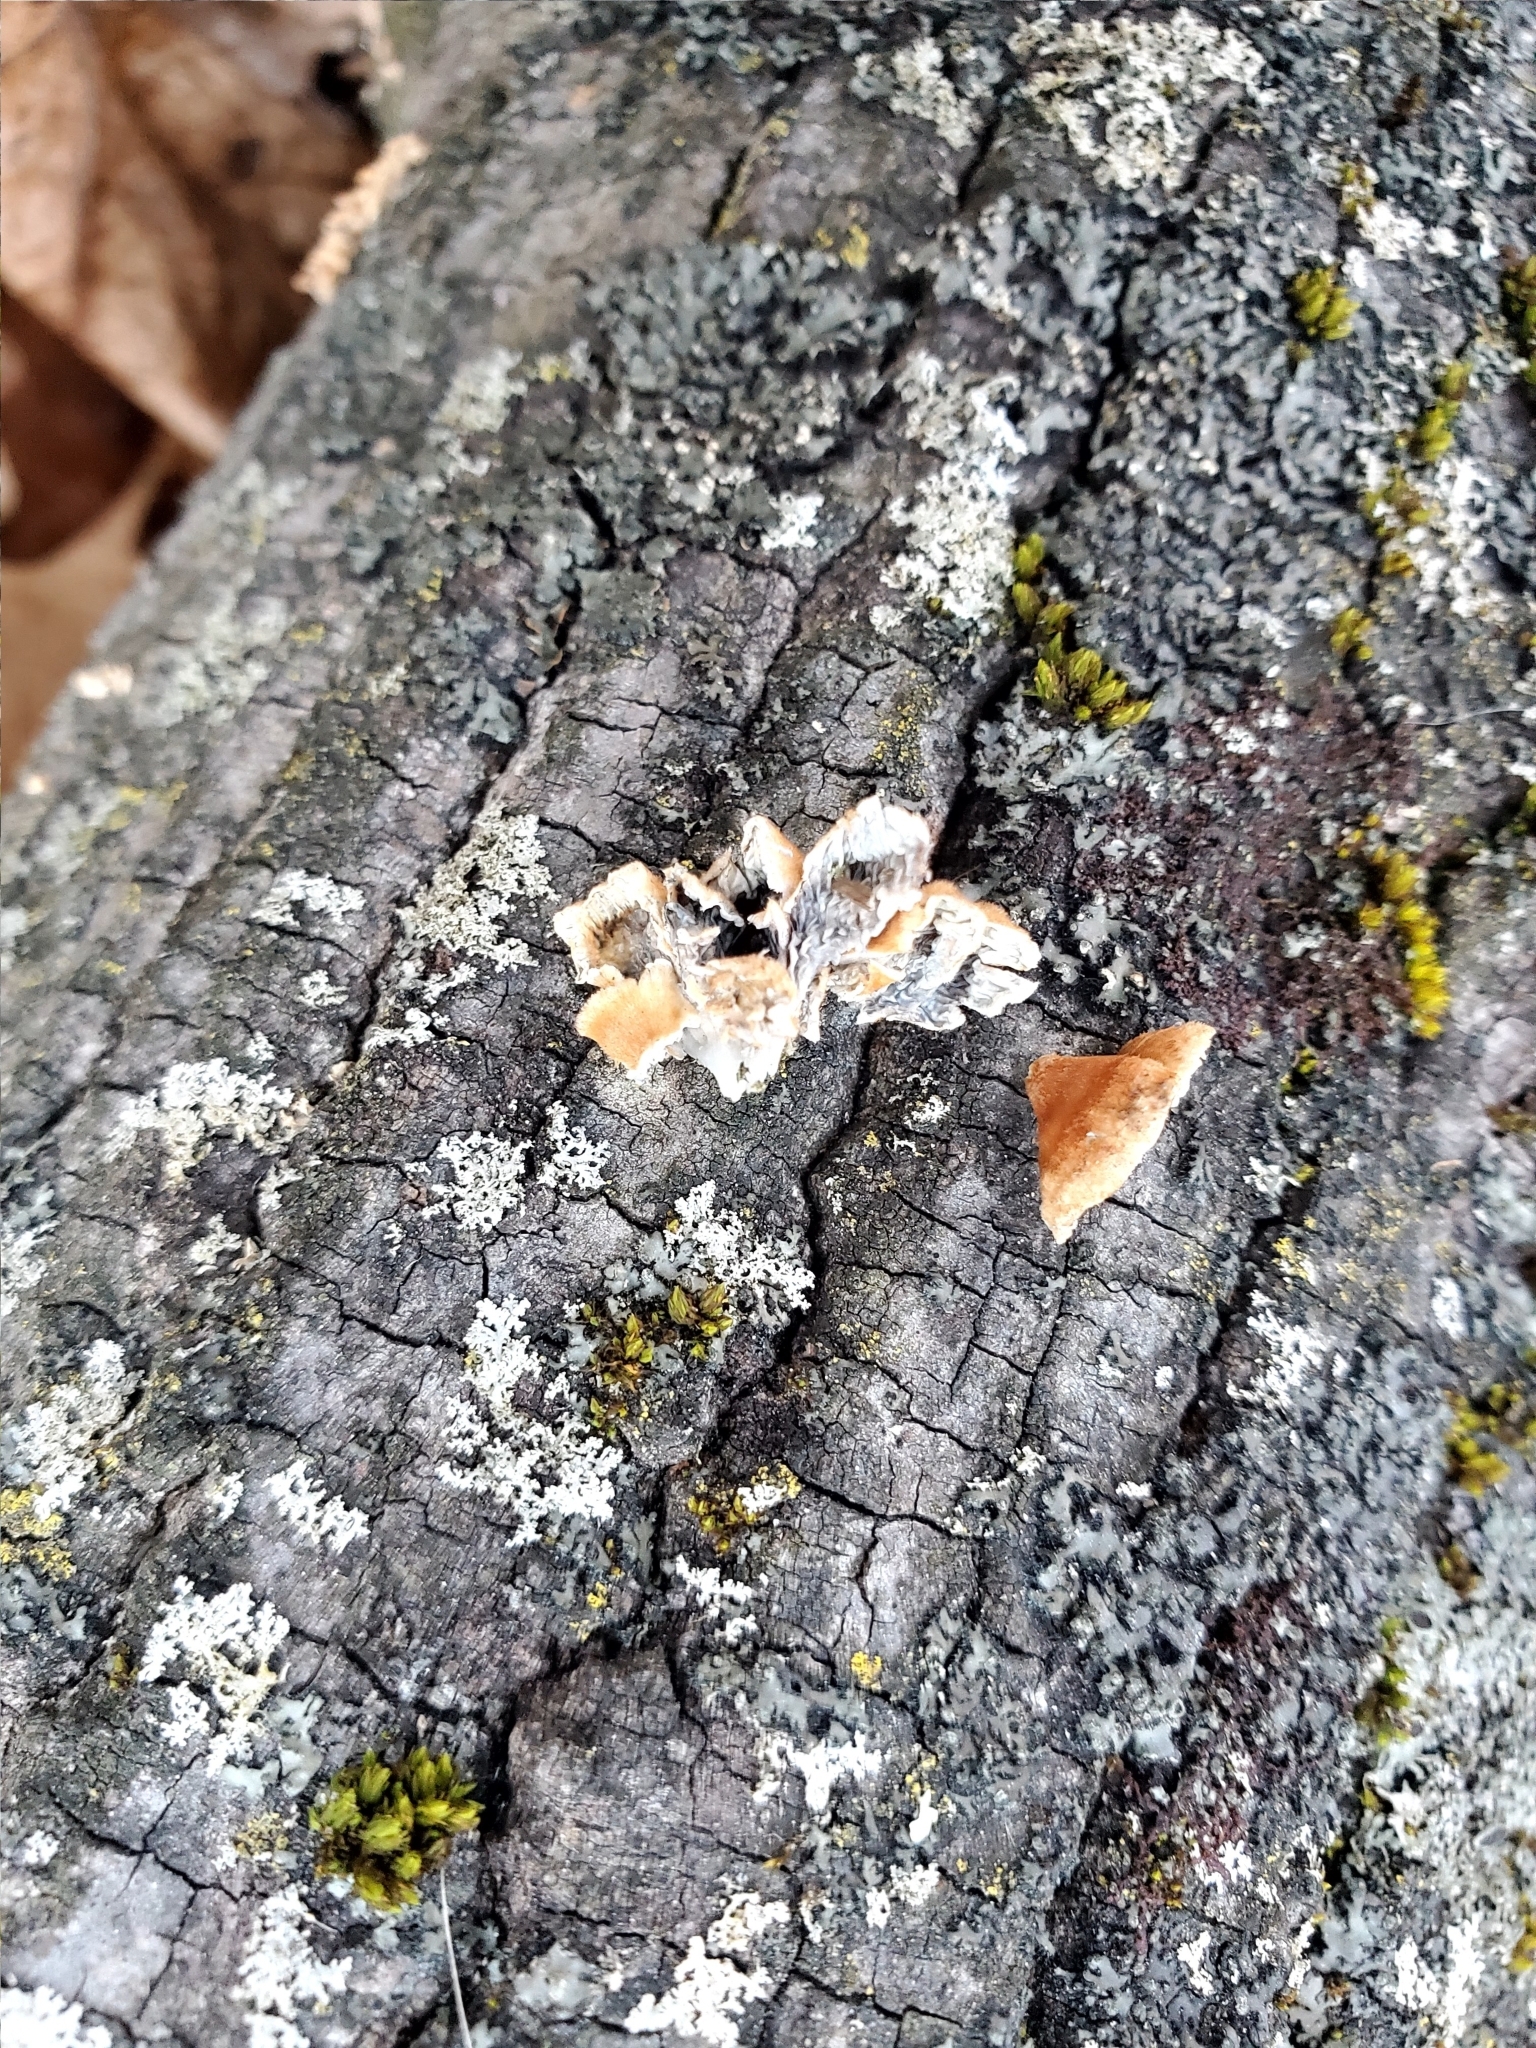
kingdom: Fungi
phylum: Basidiomycota
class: Agaricomycetes
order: Amylocorticiales
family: Amylocorticiaceae
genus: Plicaturopsis
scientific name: Plicaturopsis crispa
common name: Crimped gill
